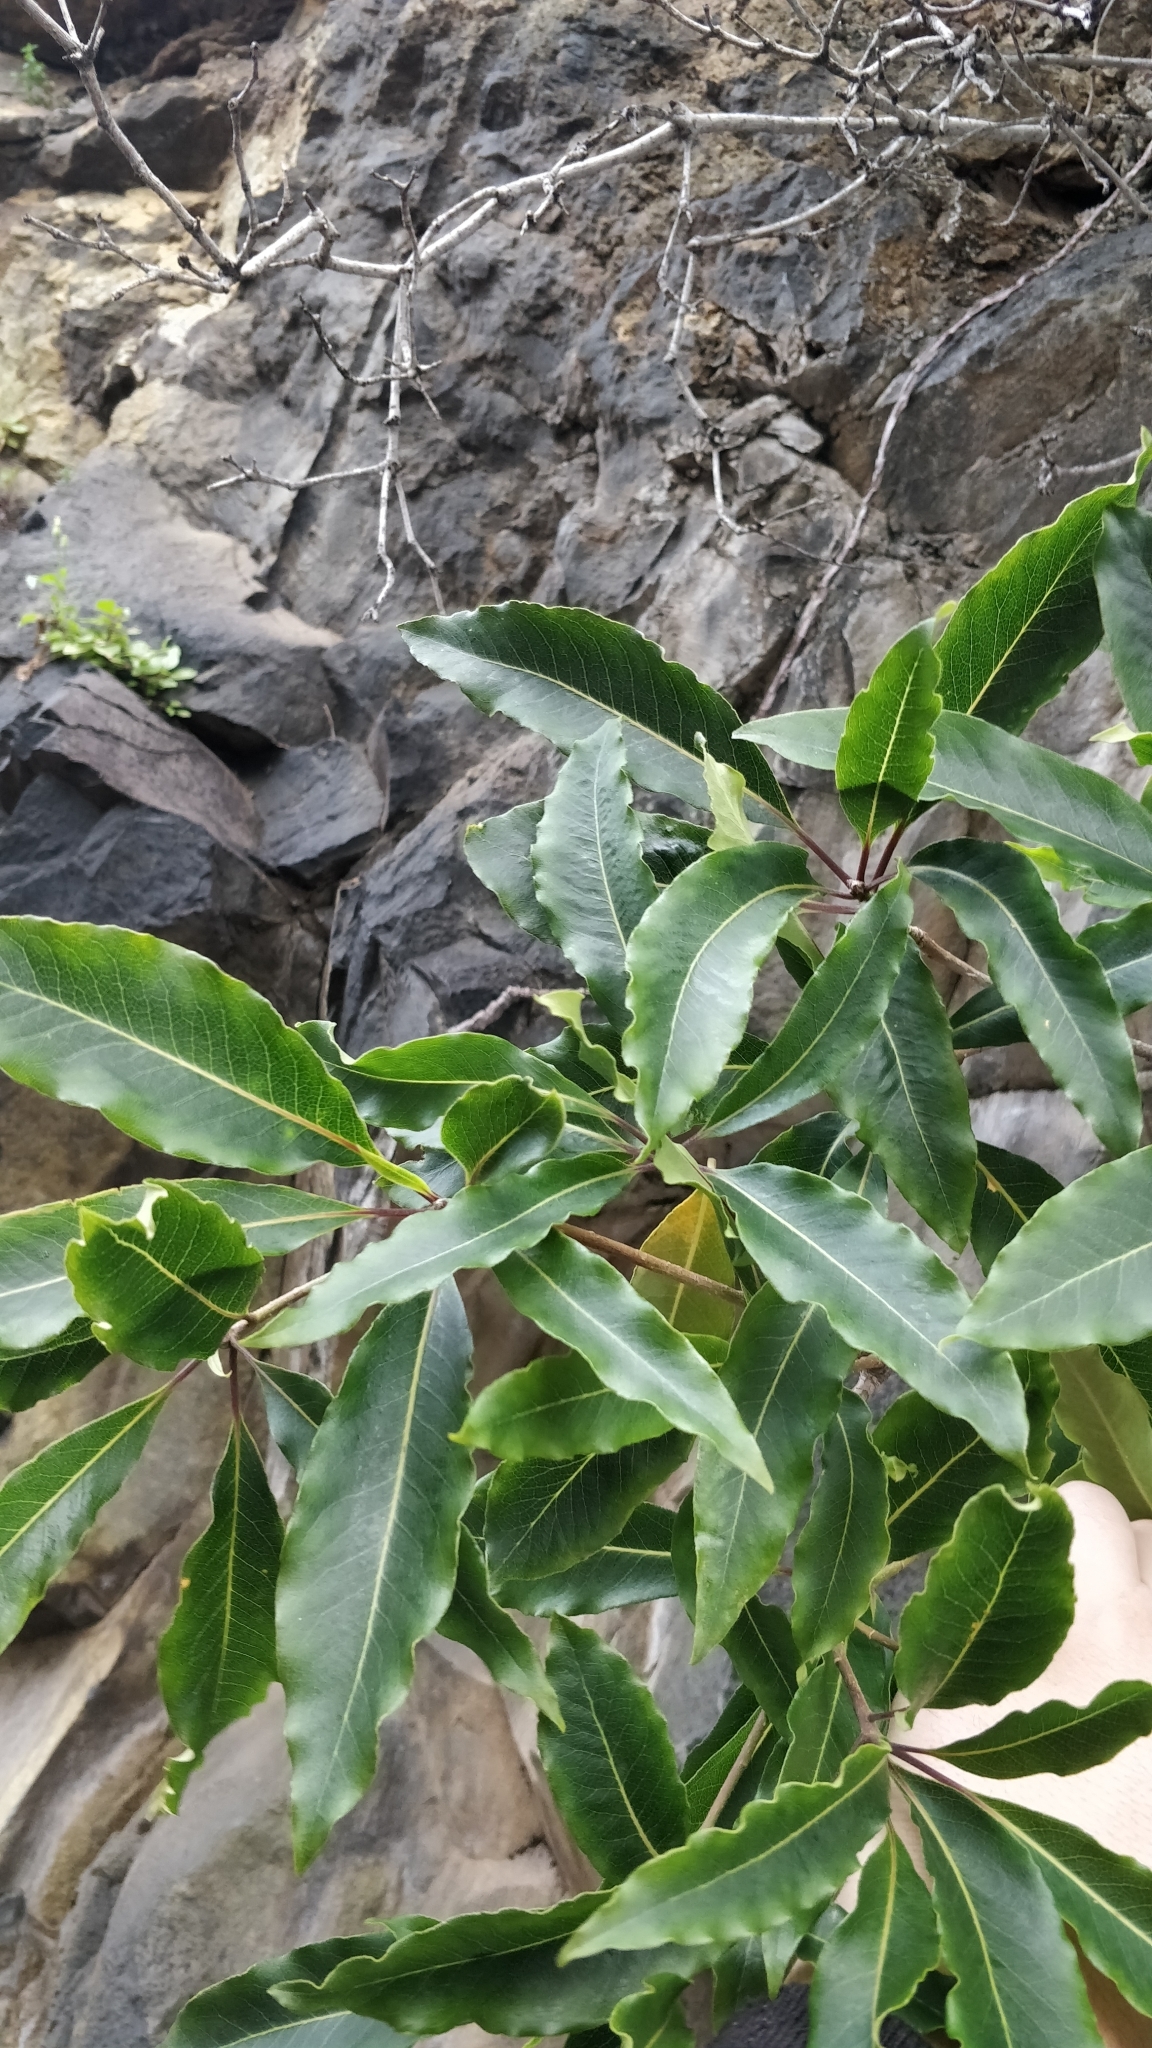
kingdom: Plantae
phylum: Tracheophyta
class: Magnoliopsida
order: Apiales
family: Pittosporaceae
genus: Pittosporum
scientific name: Pittosporum undulatum
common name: Australian cheesewood
